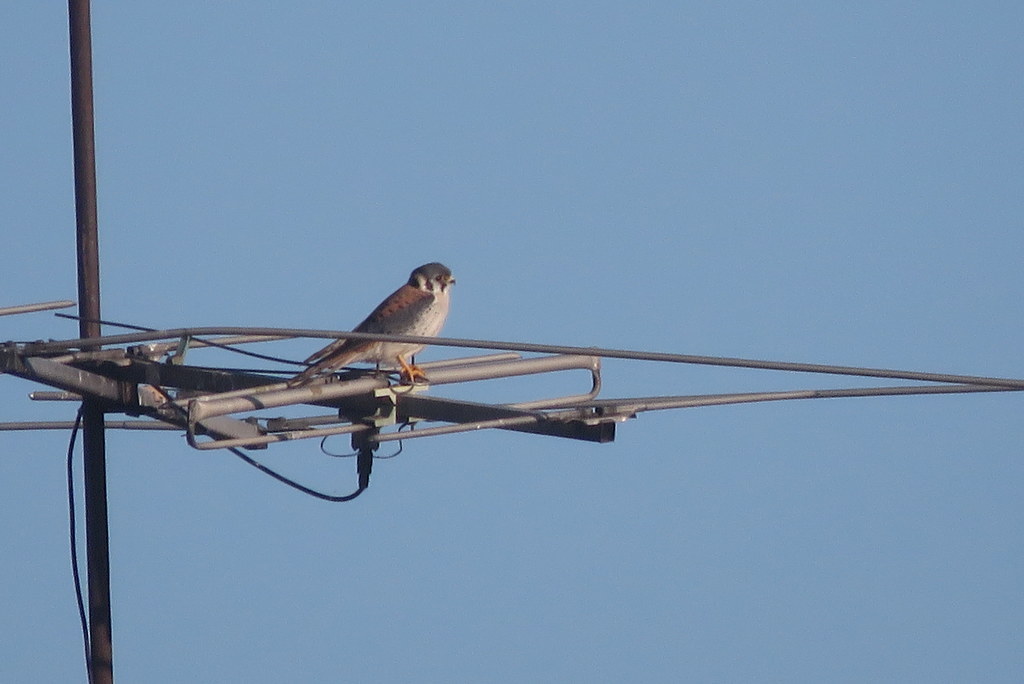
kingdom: Animalia
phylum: Chordata
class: Aves
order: Falconiformes
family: Falconidae
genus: Falco
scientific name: Falco sparverius
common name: American kestrel
